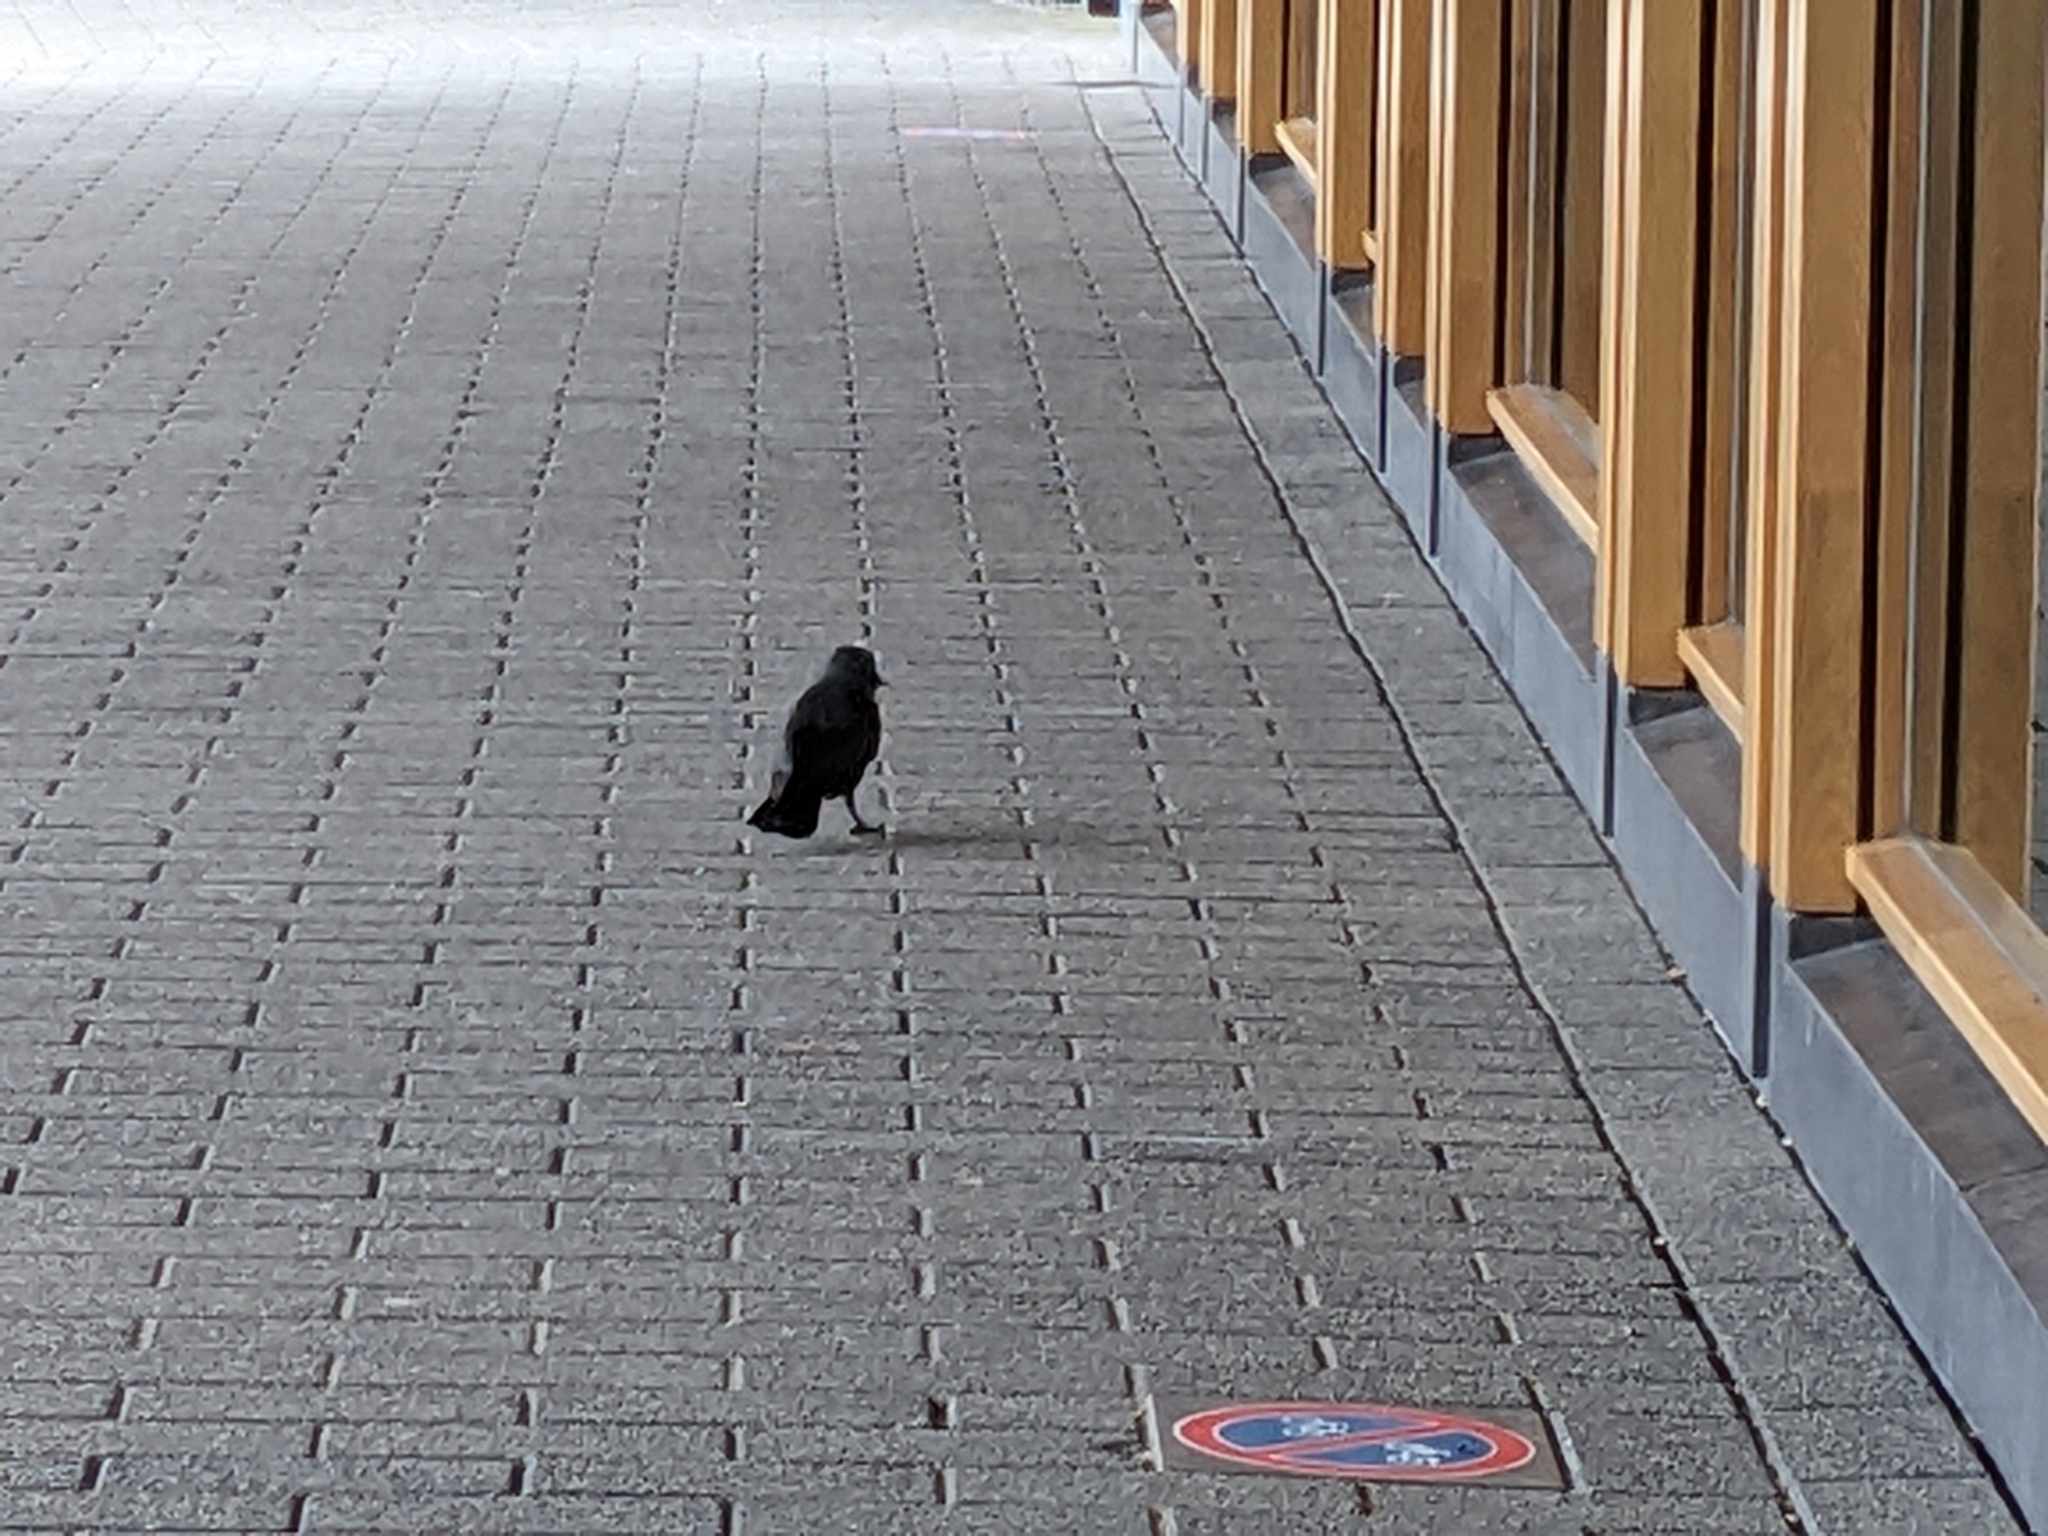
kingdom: Animalia
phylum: Chordata
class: Aves
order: Passeriformes
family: Corvidae
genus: Coloeus
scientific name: Coloeus monedula
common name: Western jackdaw
